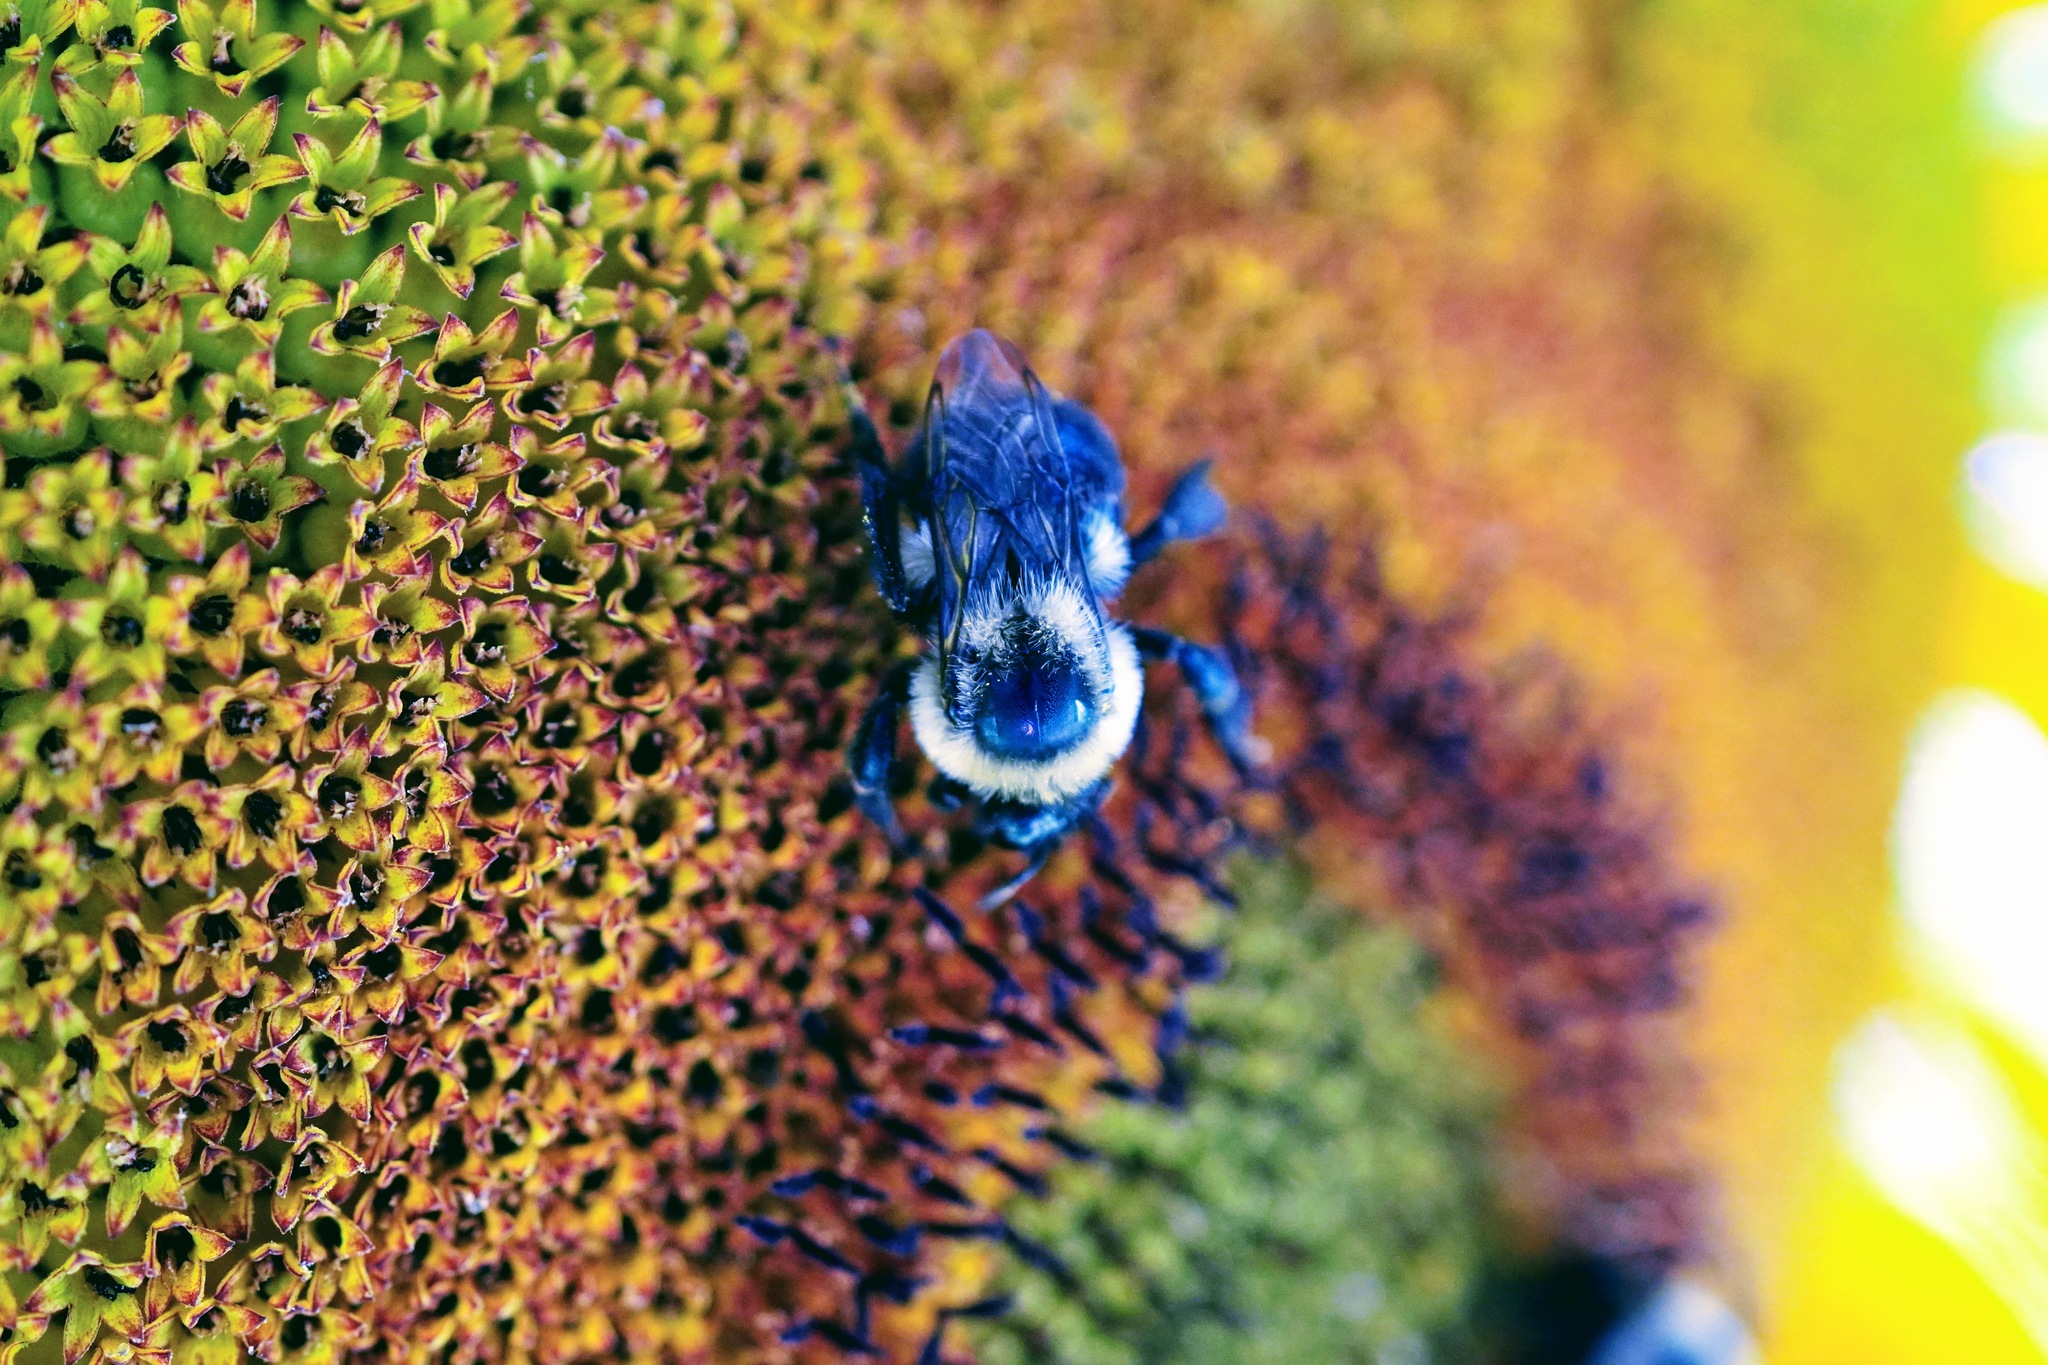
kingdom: Animalia
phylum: Arthropoda
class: Insecta
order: Hymenoptera
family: Apidae
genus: Bombus
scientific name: Bombus impatiens
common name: Common eastern bumble bee
